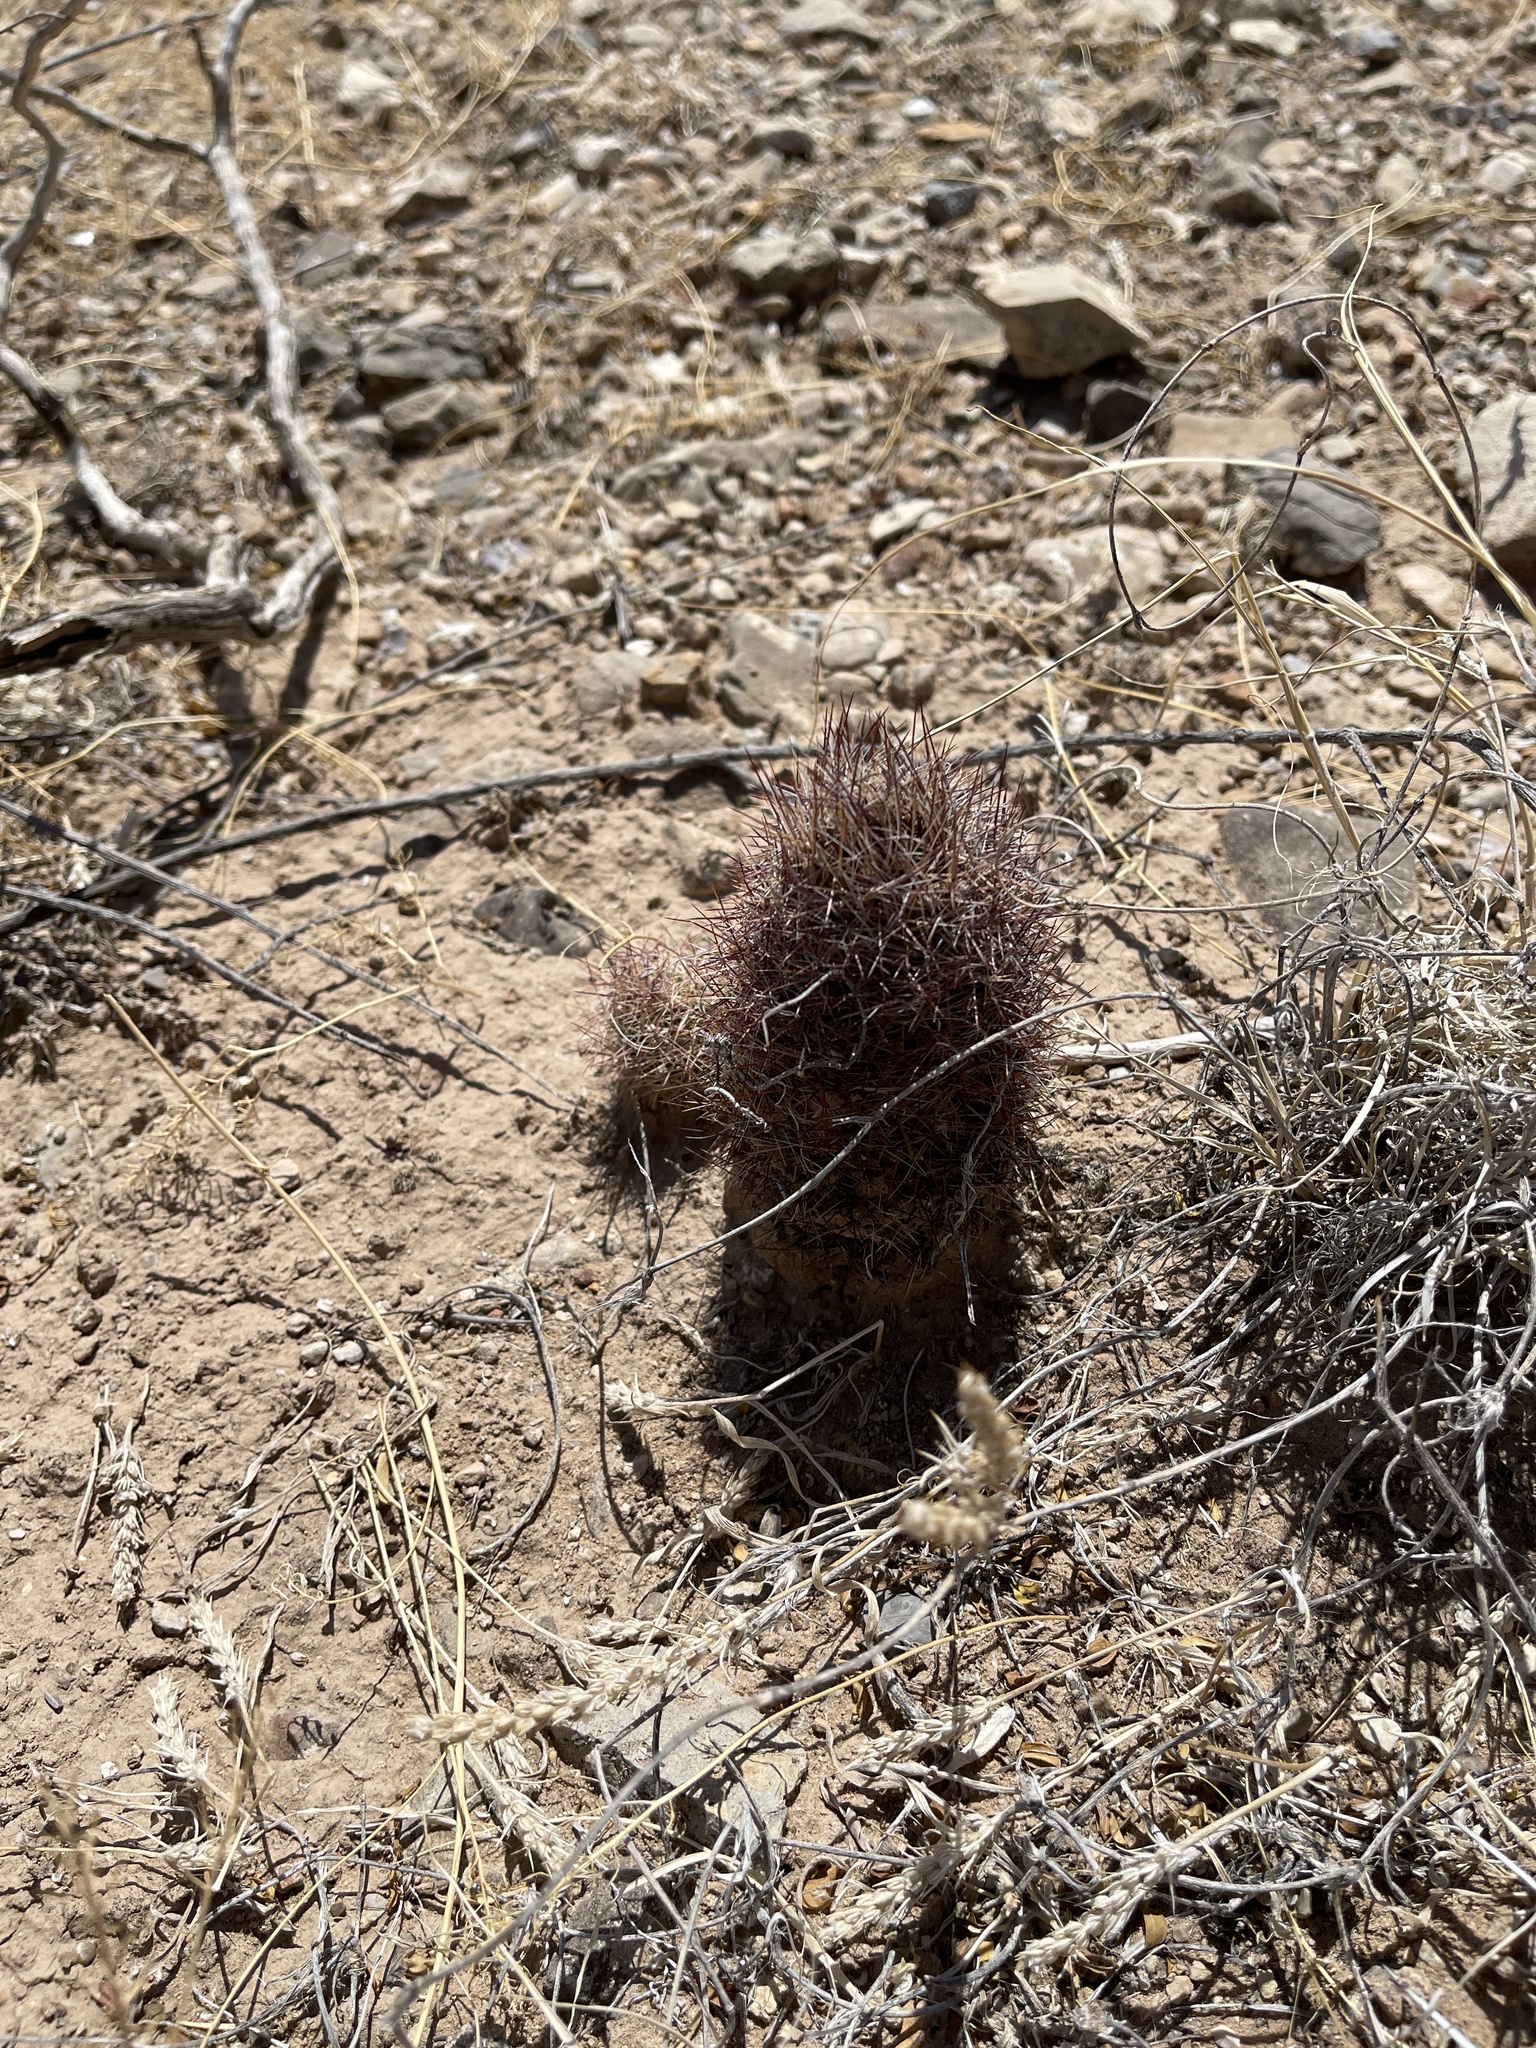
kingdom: Plantae
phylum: Tracheophyta
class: Magnoliopsida
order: Caryophyllales
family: Cactaceae
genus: Sclerocactus
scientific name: Sclerocactus intertextus
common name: White fish-hook cactus
